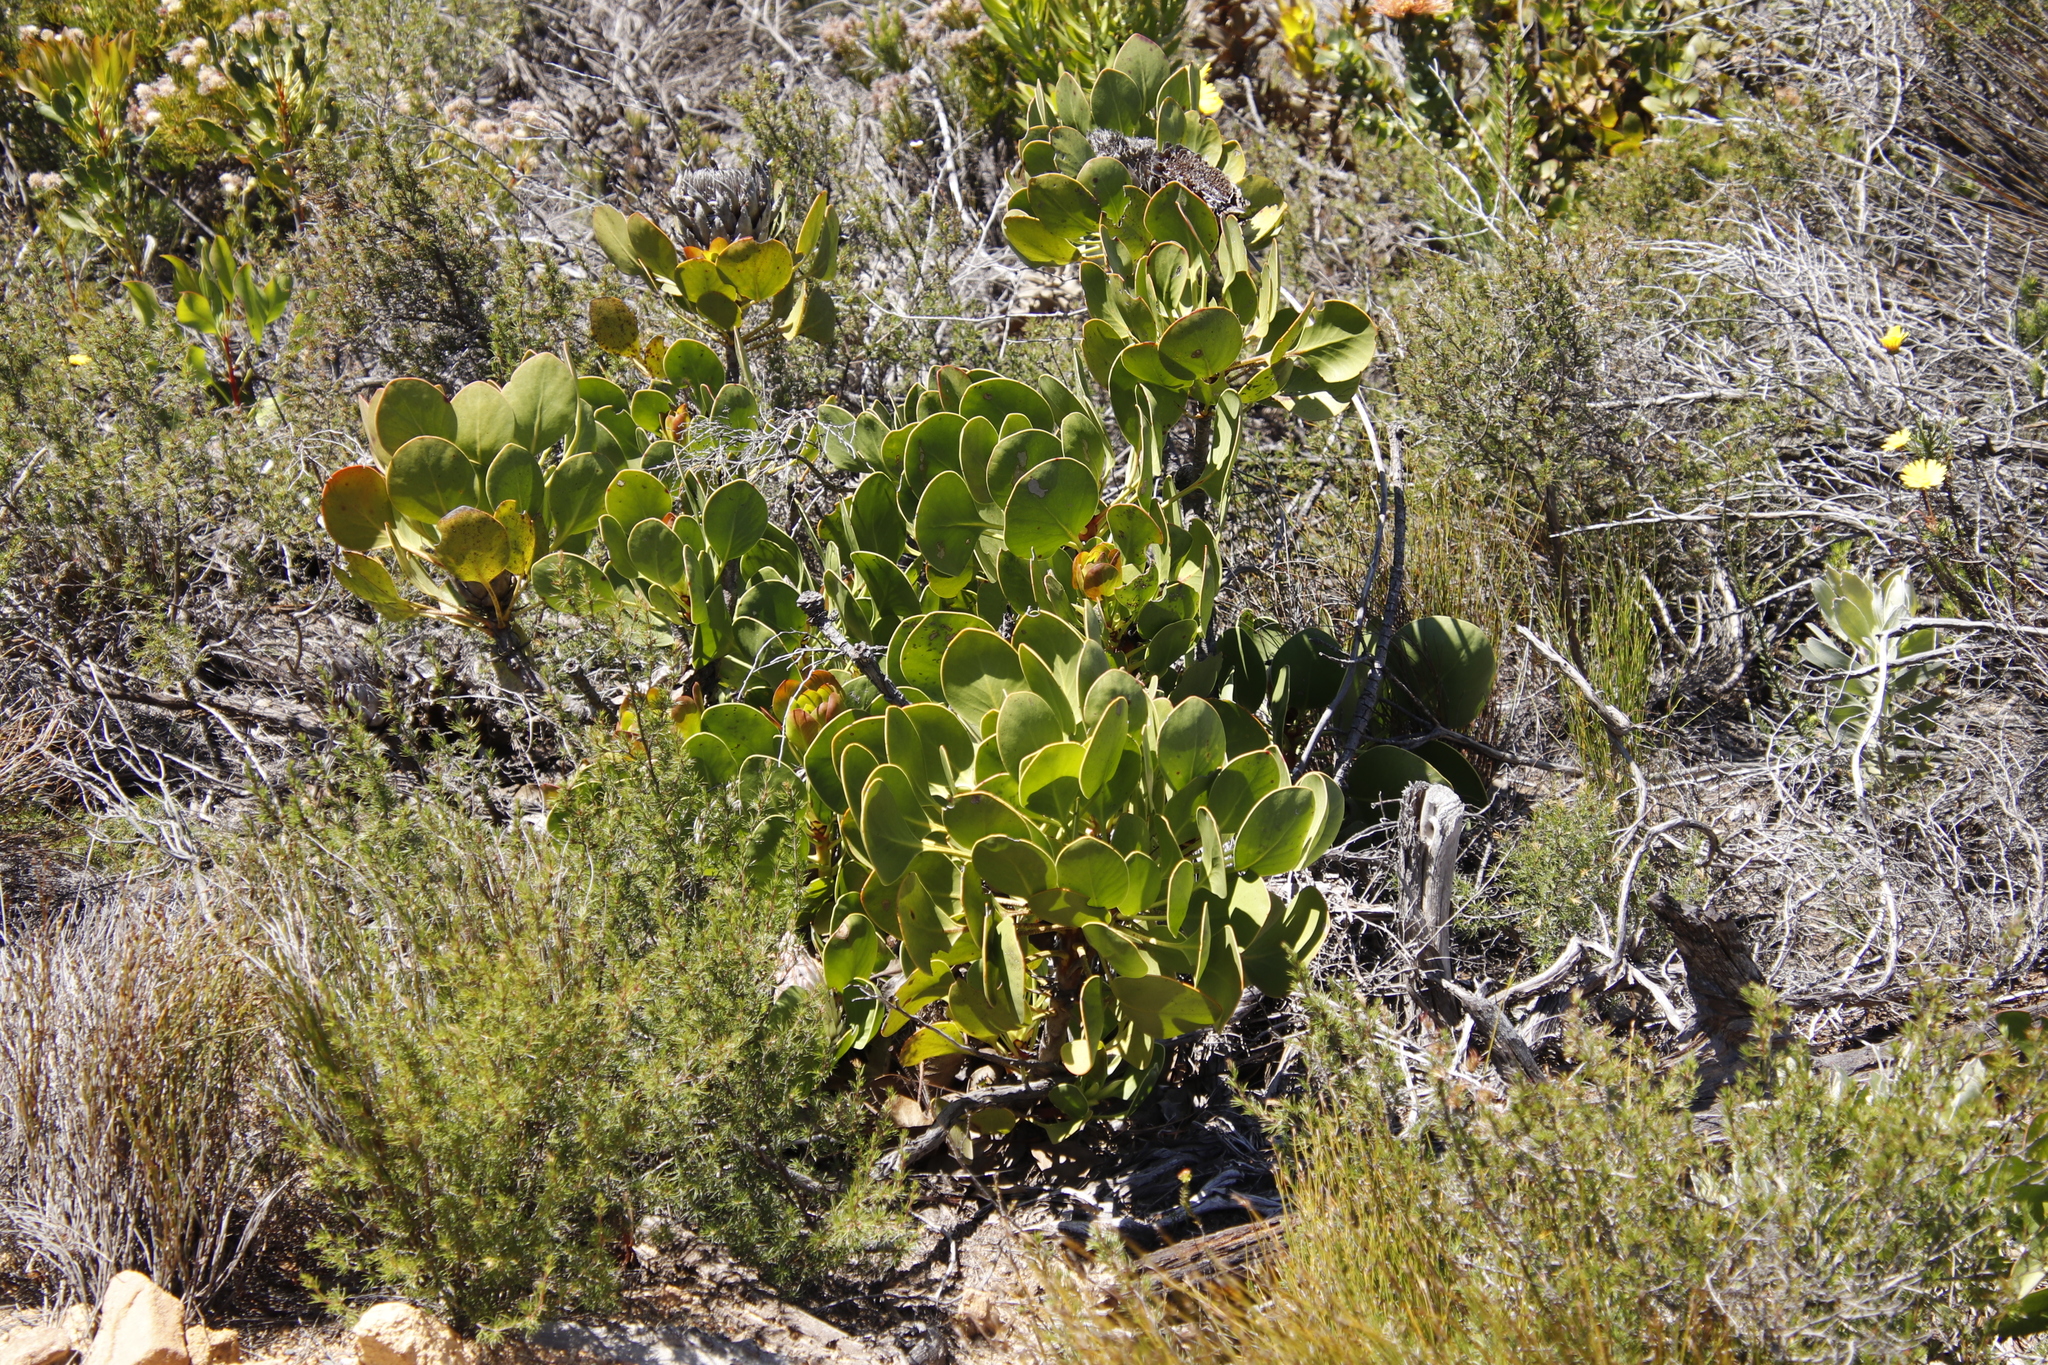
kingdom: Plantae
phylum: Tracheophyta
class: Magnoliopsida
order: Proteales
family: Proteaceae
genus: Protea
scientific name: Protea cynaroides
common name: King protea
